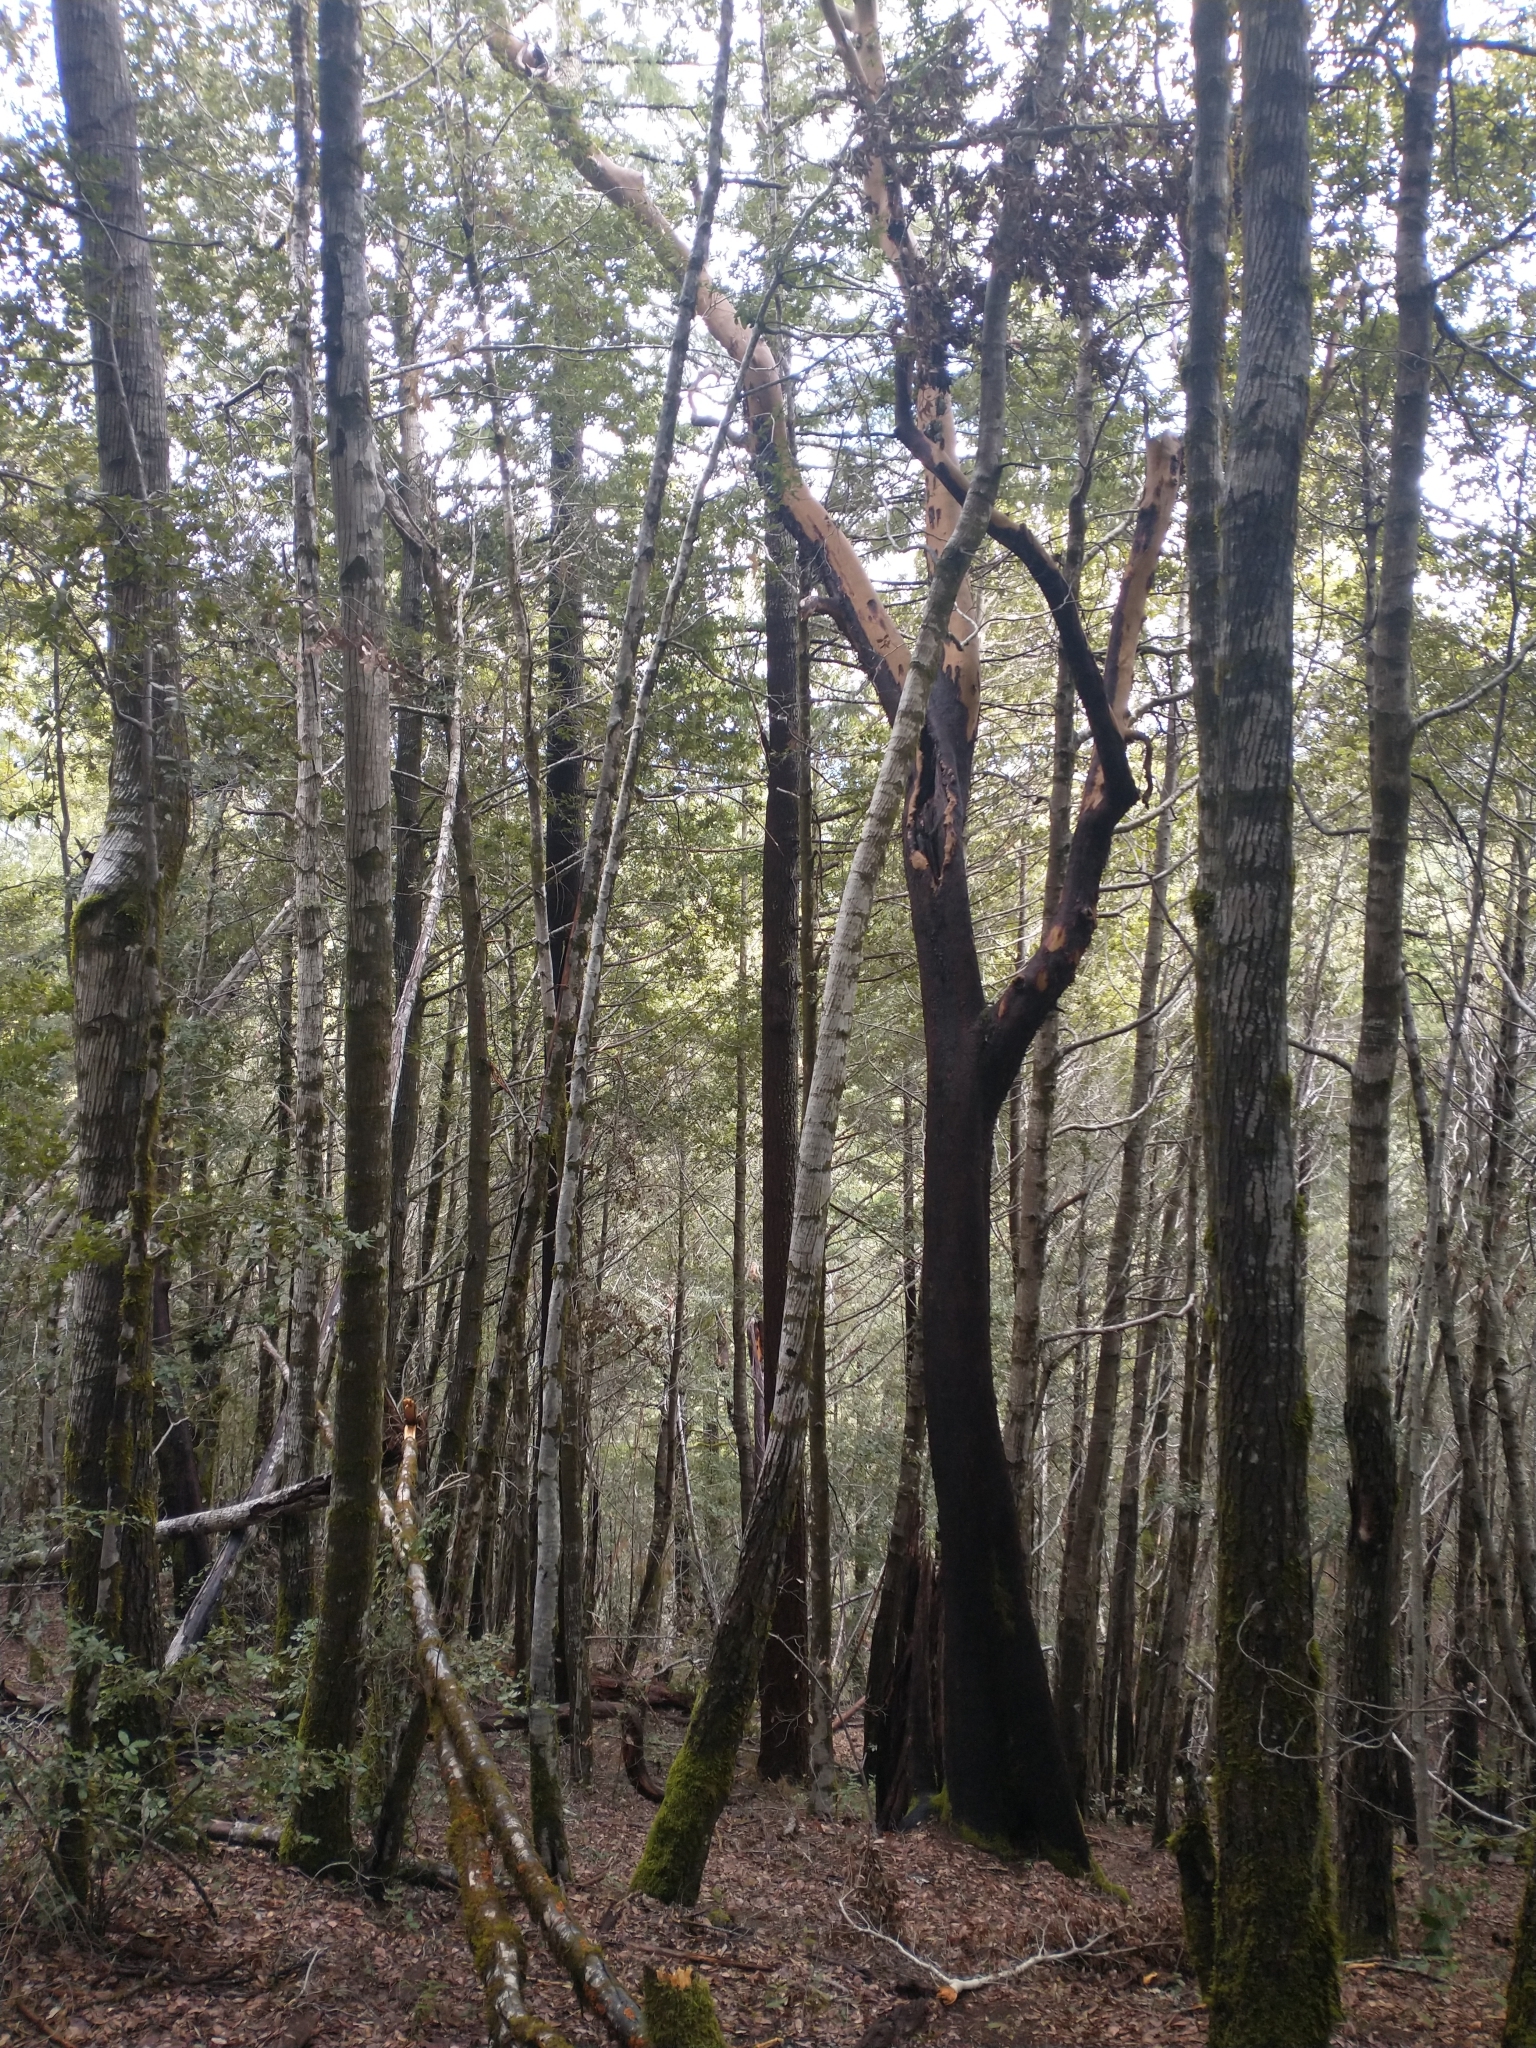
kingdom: Plantae
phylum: Tracheophyta
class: Magnoliopsida
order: Ericales
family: Ericaceae
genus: Arbutus
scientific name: Arbutus menziesii
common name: Pacific madrone
